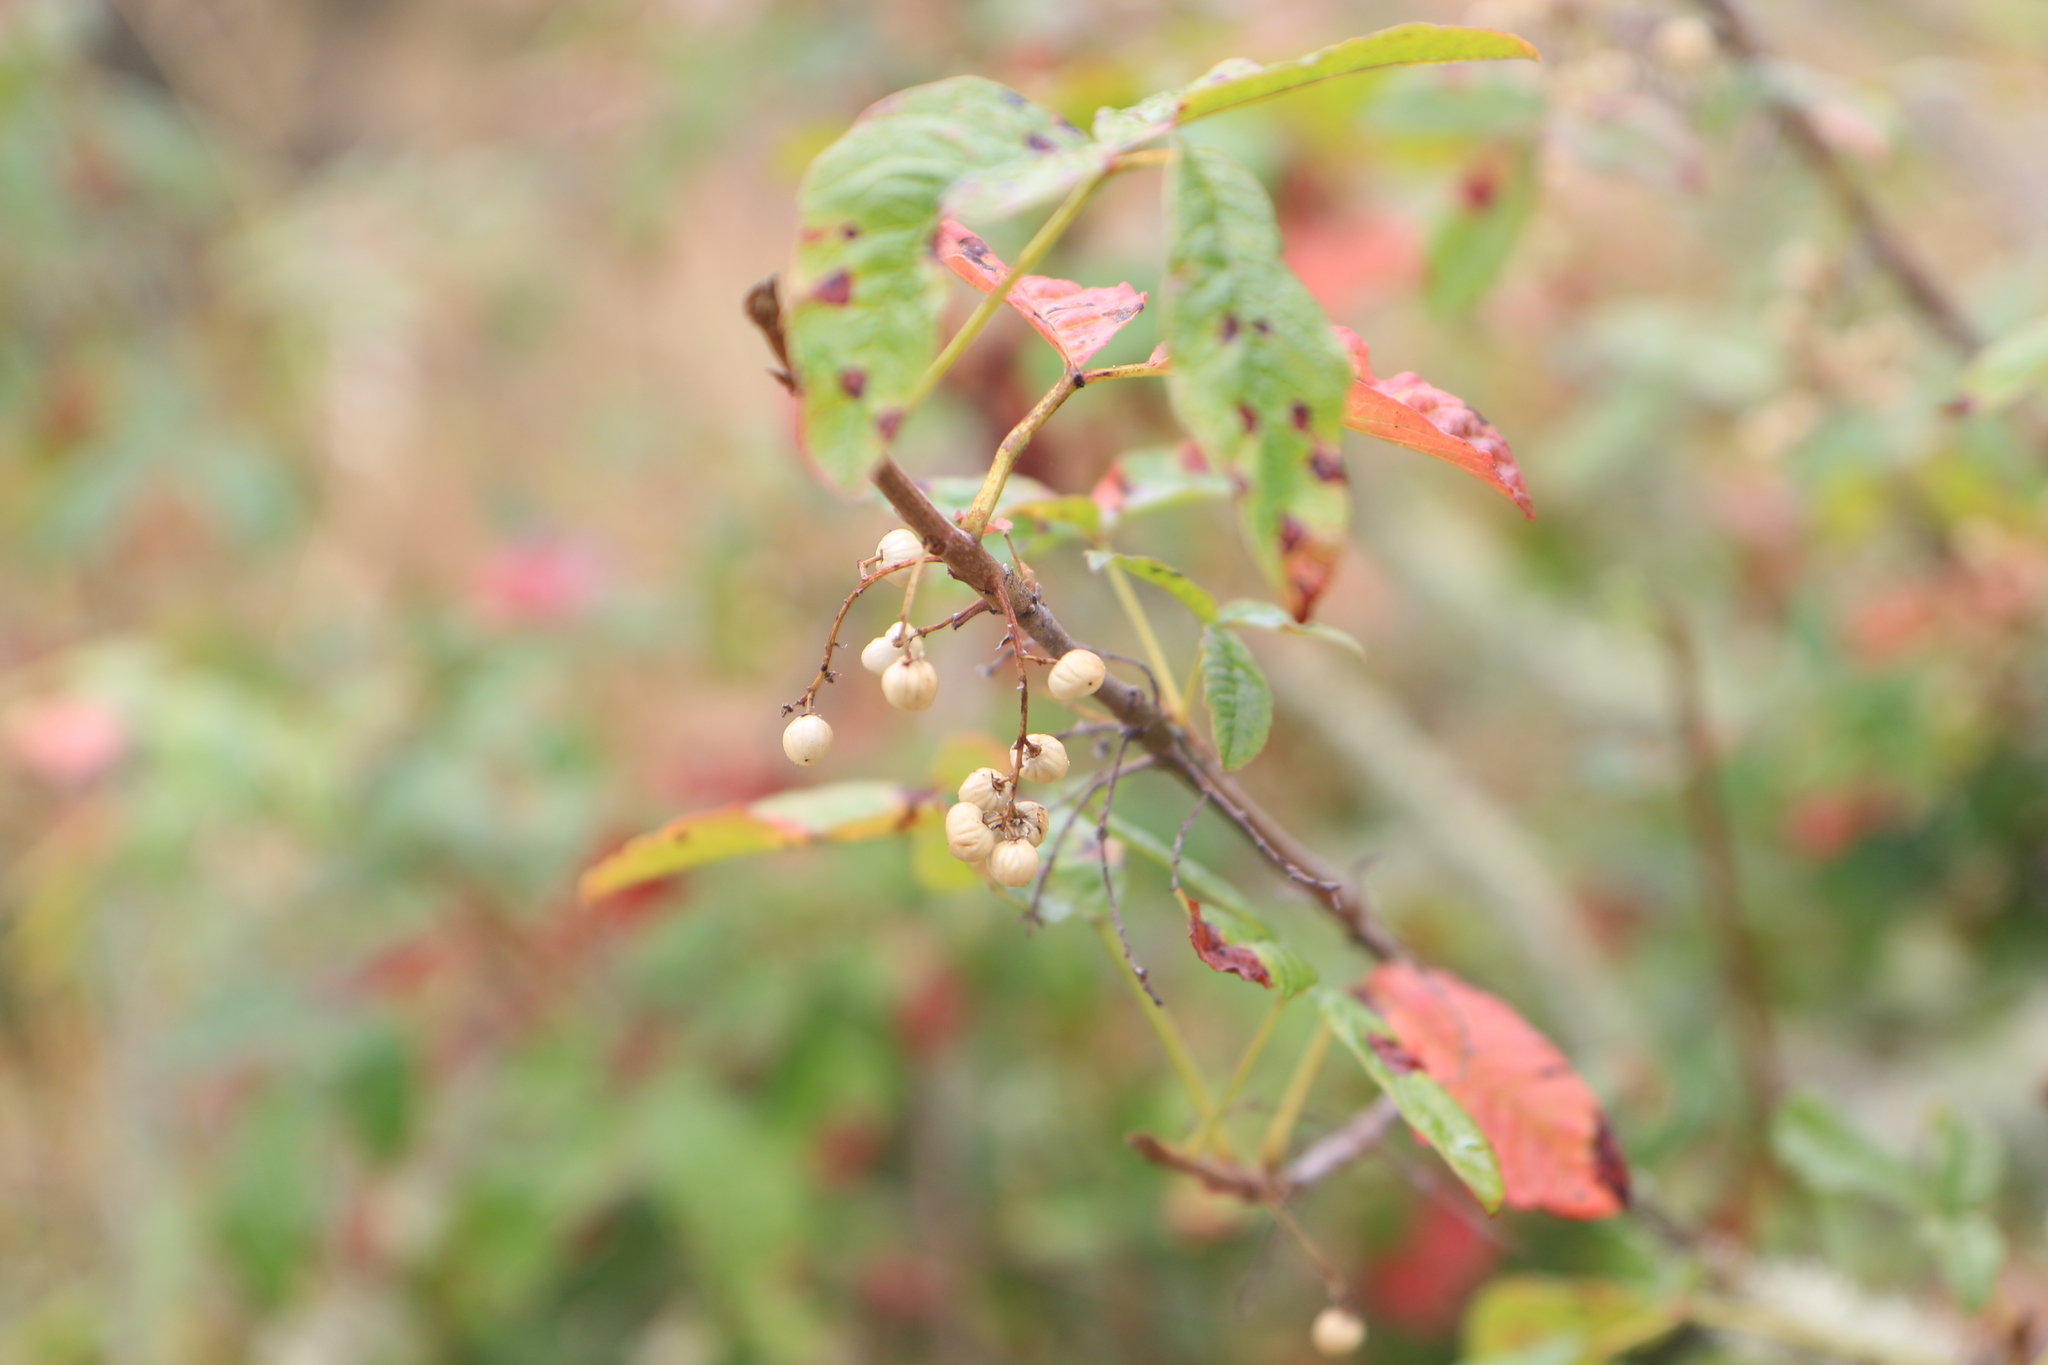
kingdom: Plantae
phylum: Tracheophyta
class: Magnoliopsida
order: Sapindales
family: Anacardiaceae
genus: Toxicodendron
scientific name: Toxicodendron diversilobum
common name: Pacific poison-oak
